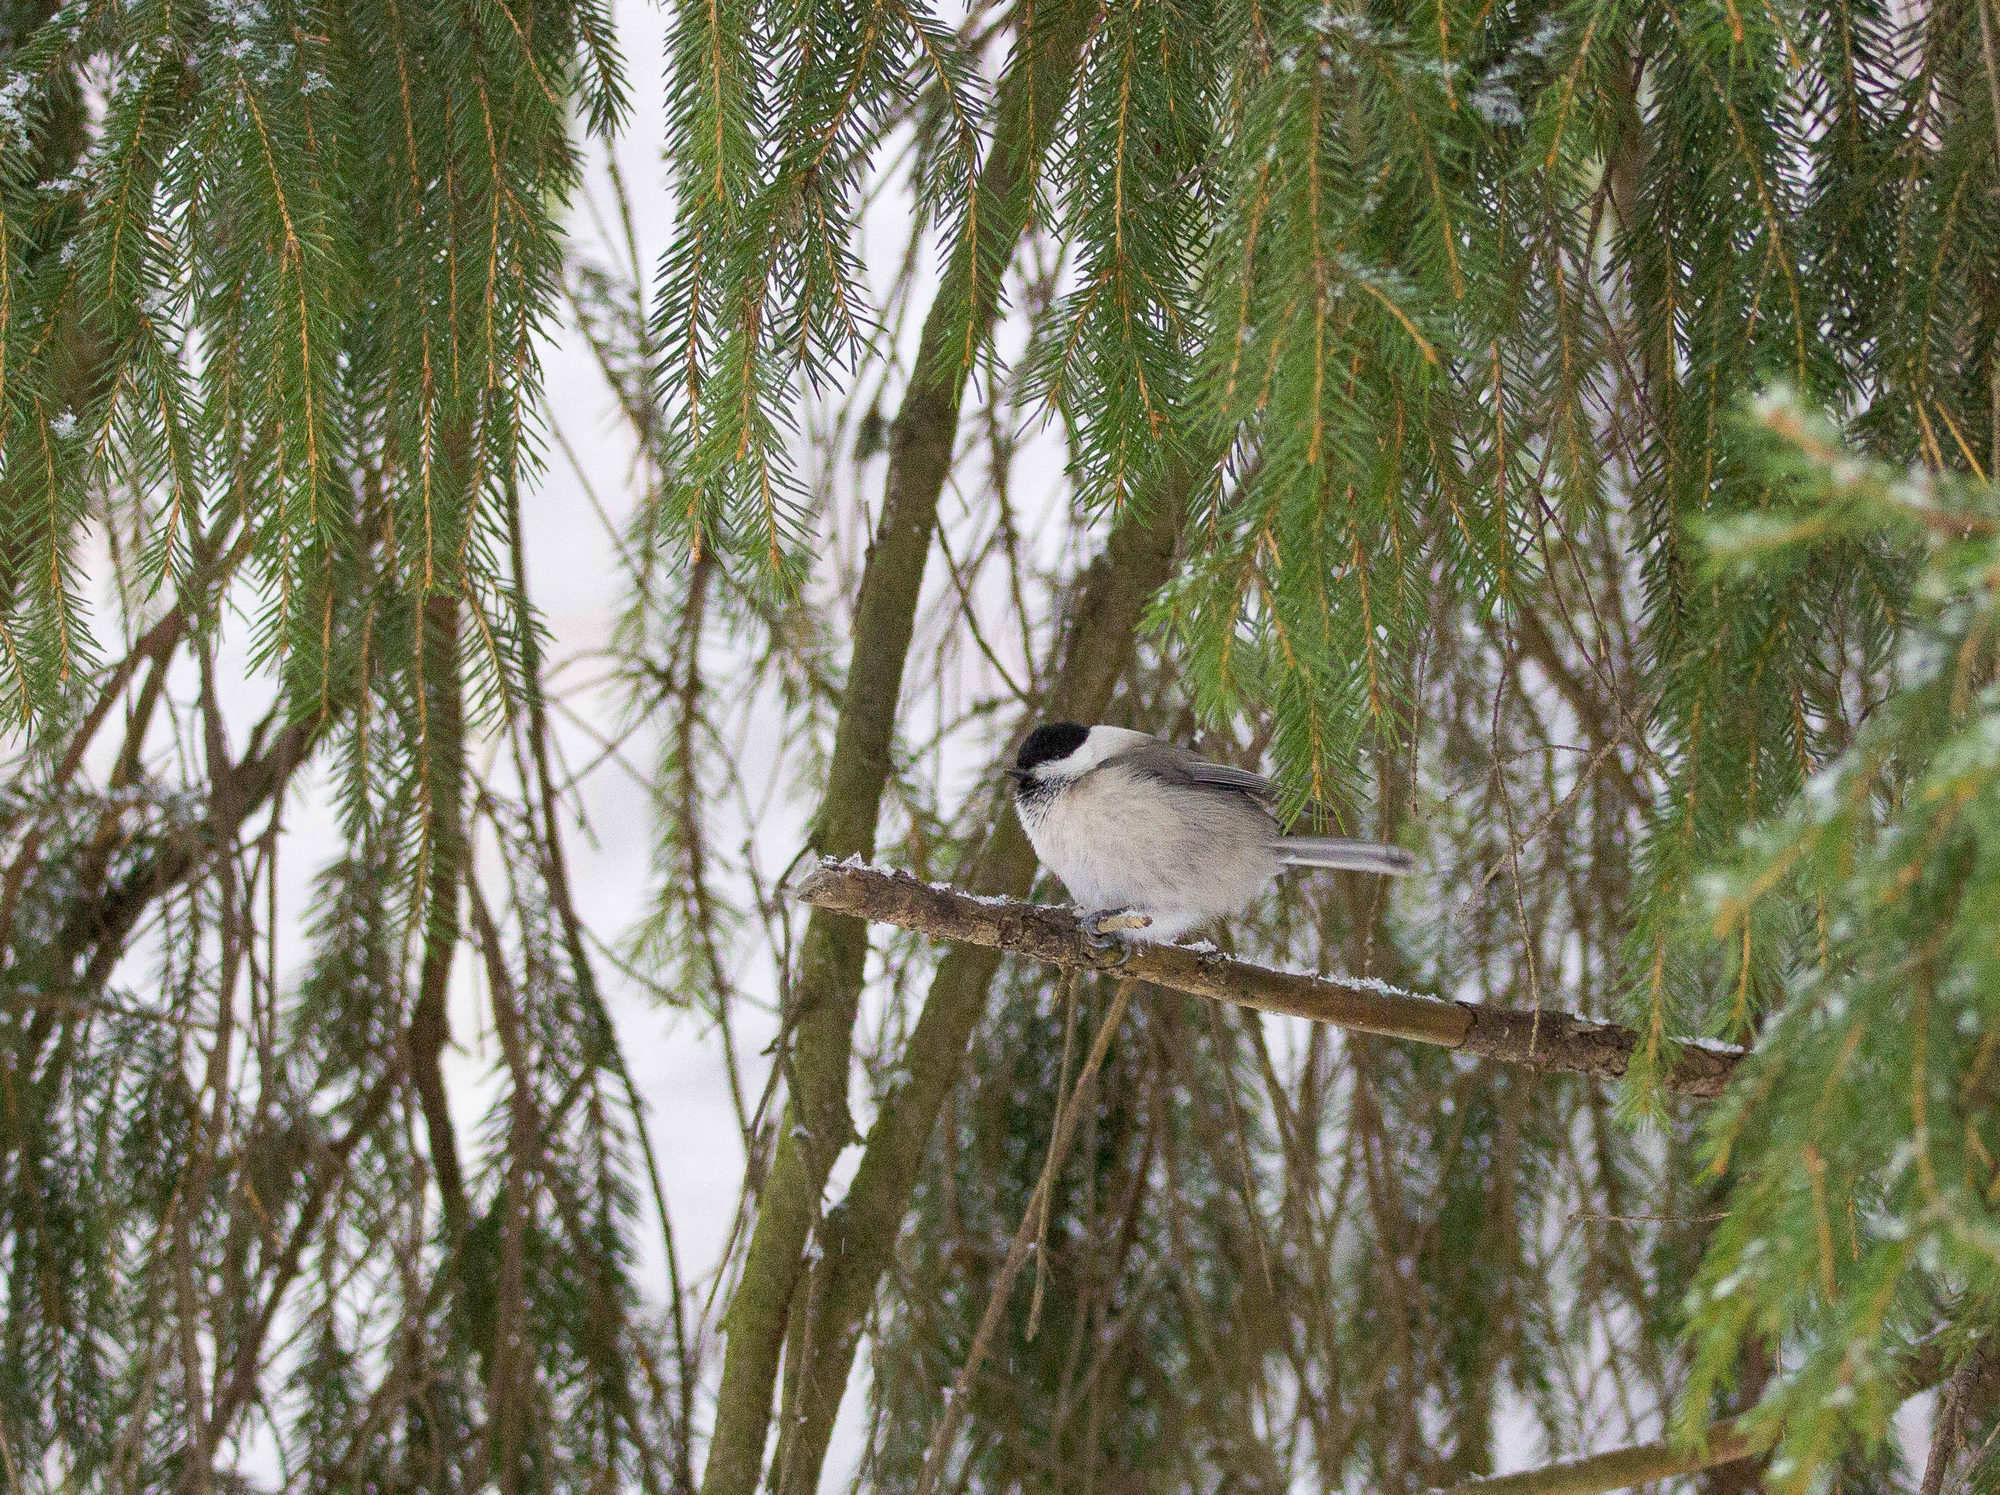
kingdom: Animalia
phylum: Chordata
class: Aves
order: Passeriformes
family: Paridae
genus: Poecile
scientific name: Poecile montanus
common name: Willow tit
